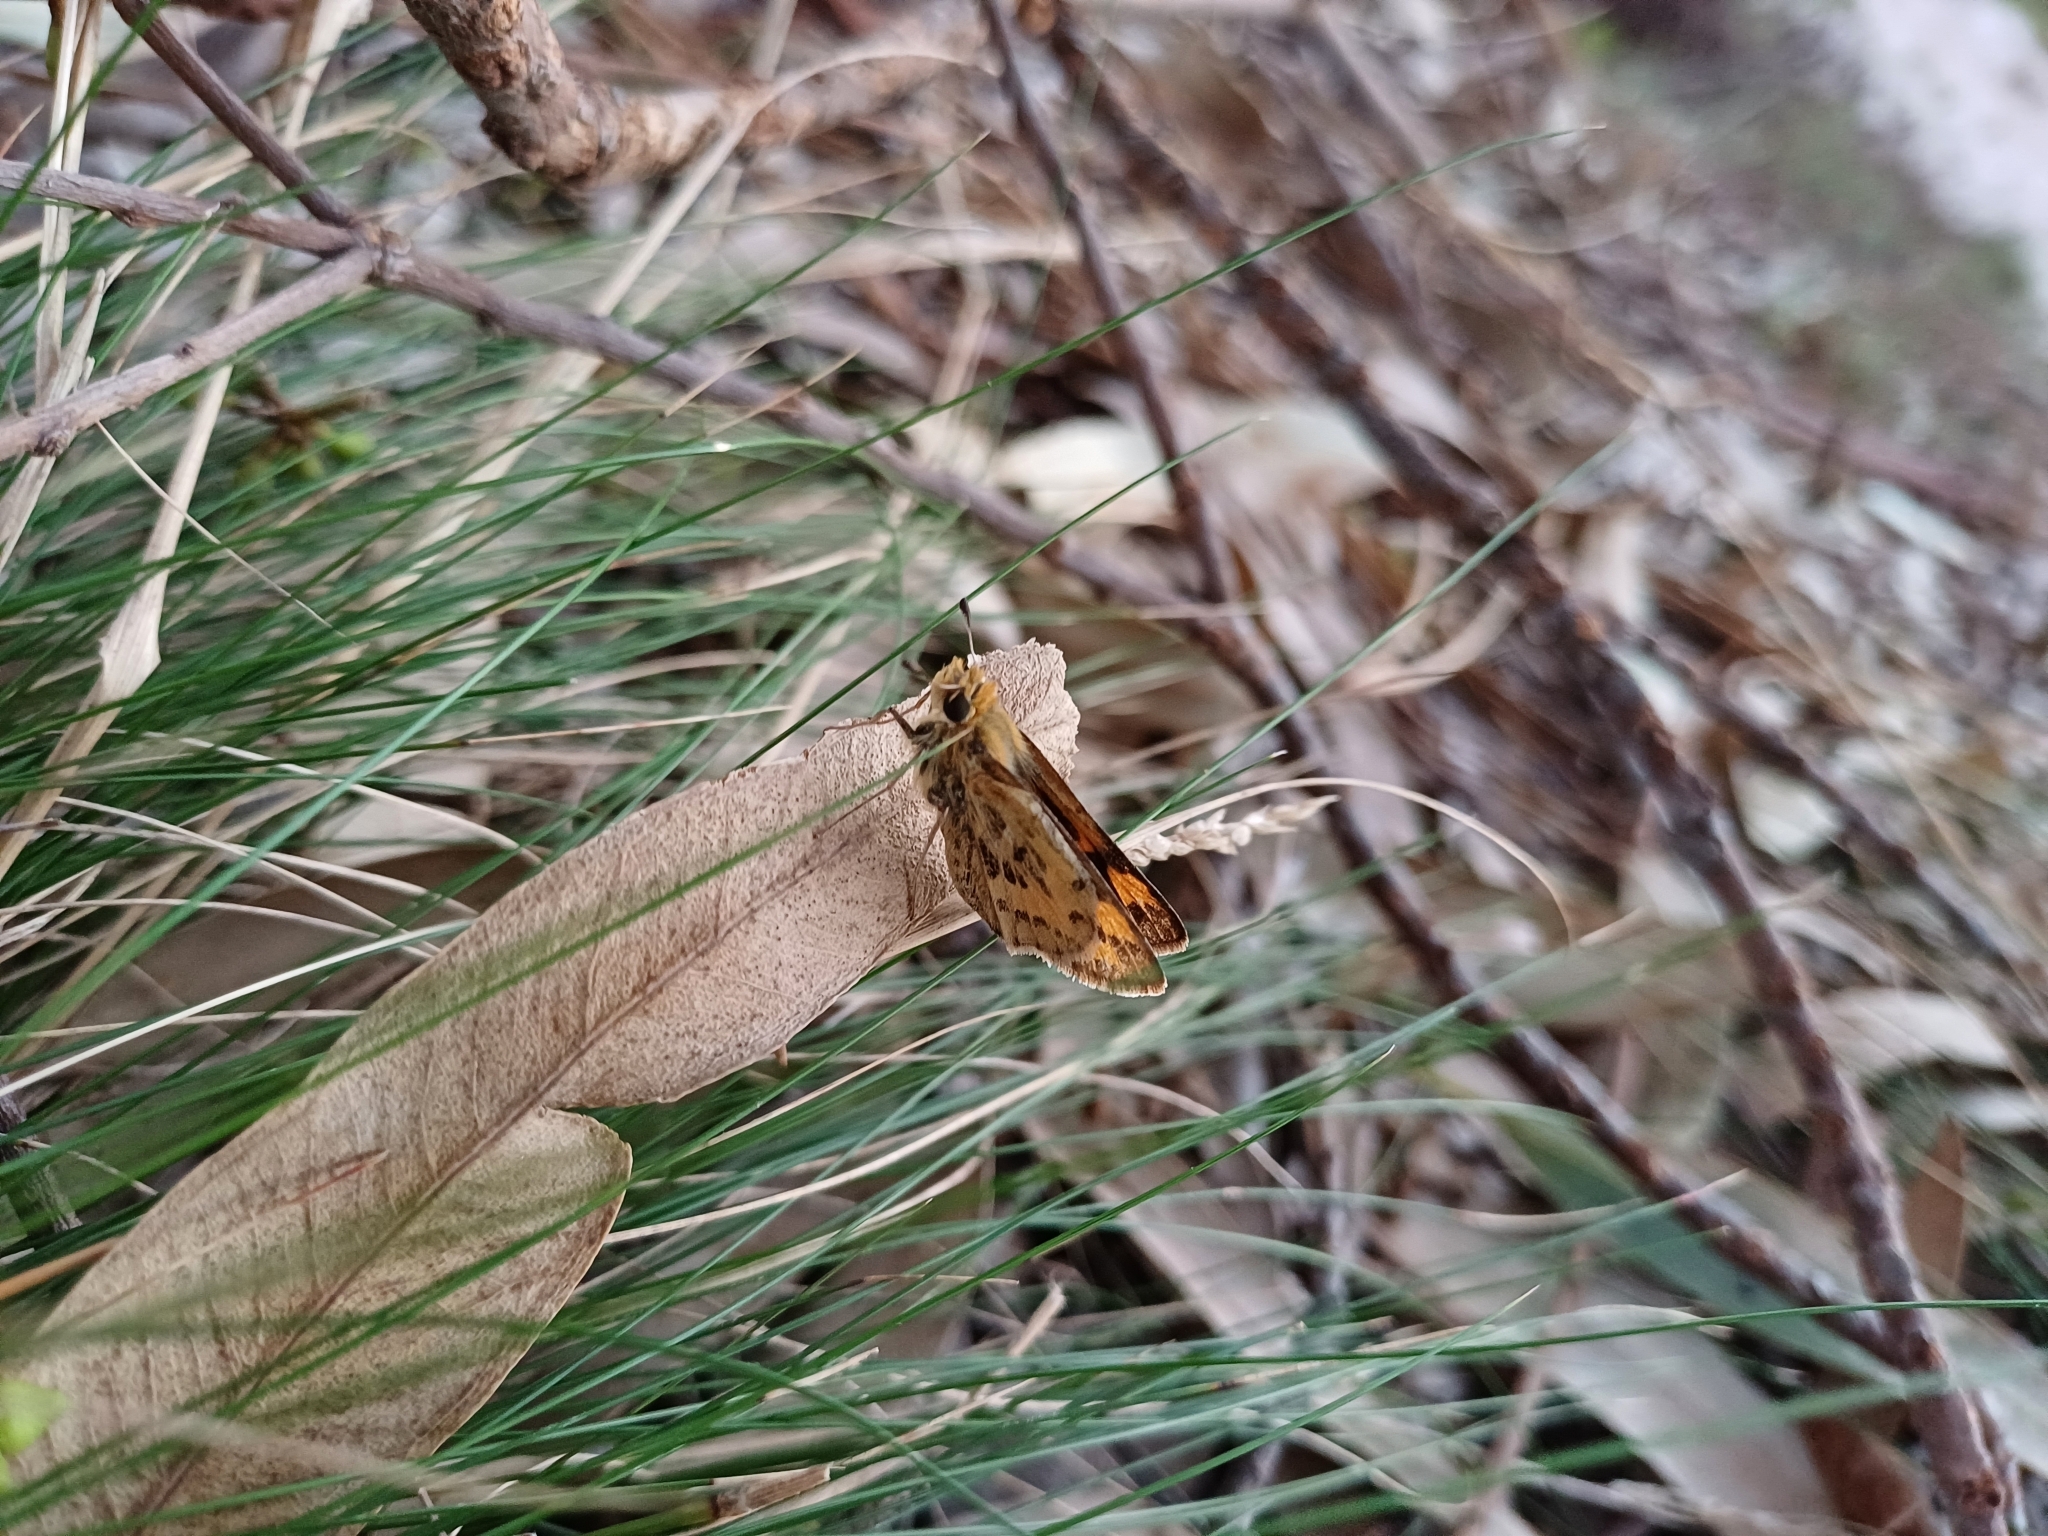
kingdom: Animalia
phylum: Arthropoda
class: Insecta
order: Lepidoptera
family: Hesperiidae
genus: Polites
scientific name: Polites vibex
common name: Whirlabout
